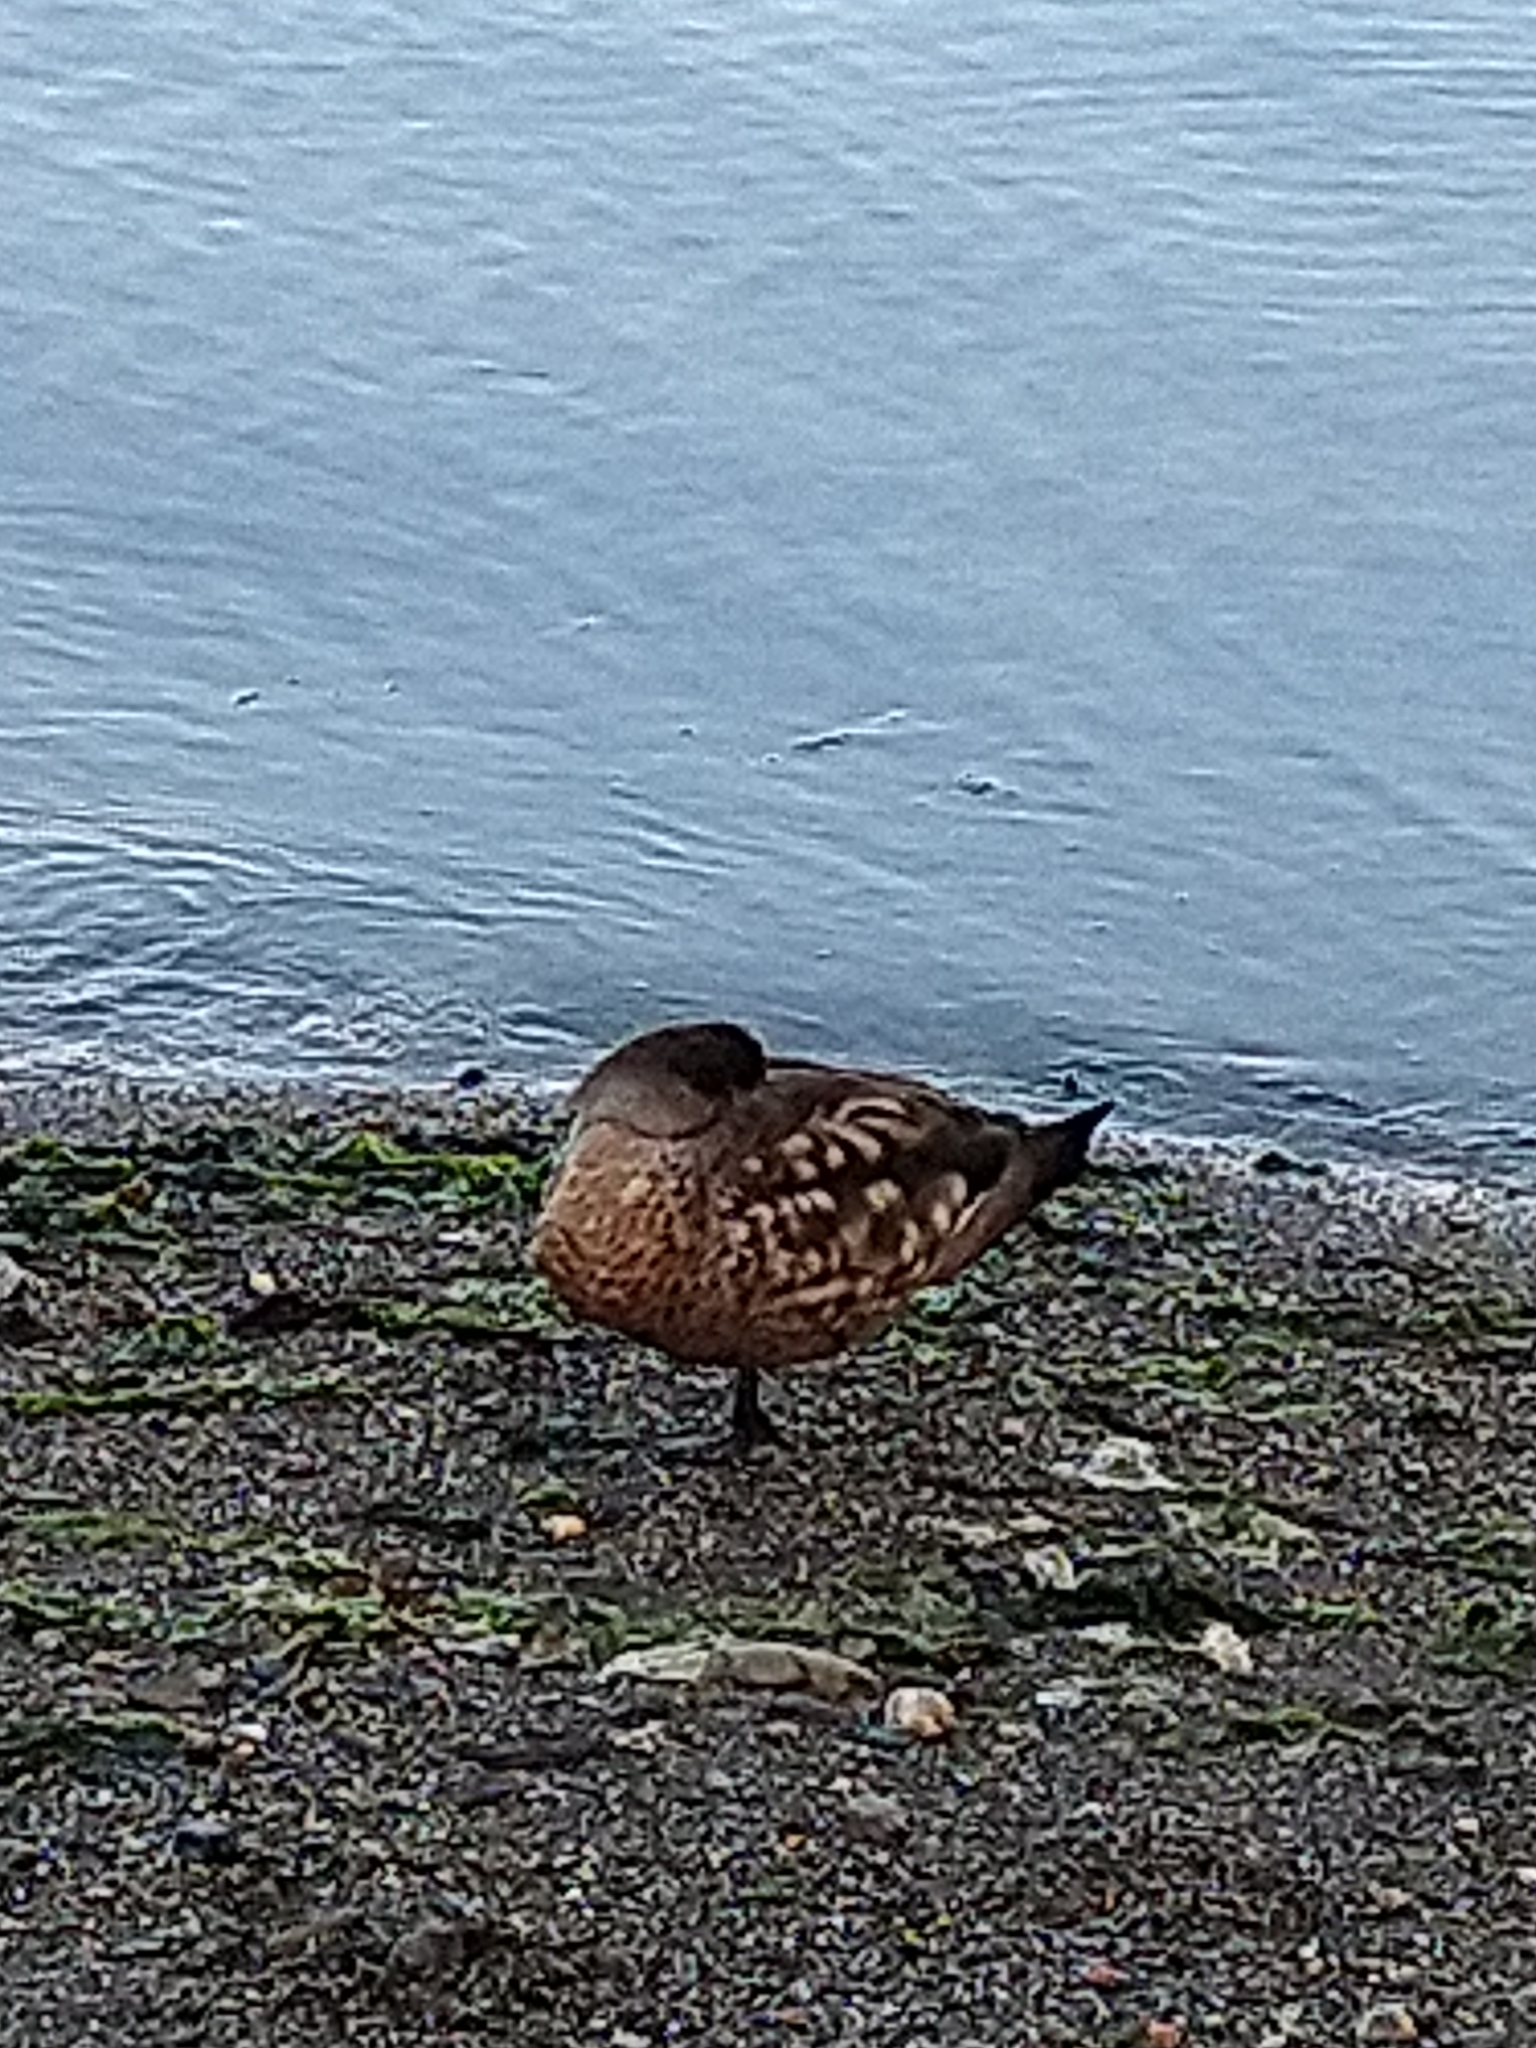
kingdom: Animalia
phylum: Chordata
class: Aves
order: Anseriformes
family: Anatidae
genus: Lophonetta
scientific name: Lophonetta specularioides
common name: Crested duck
